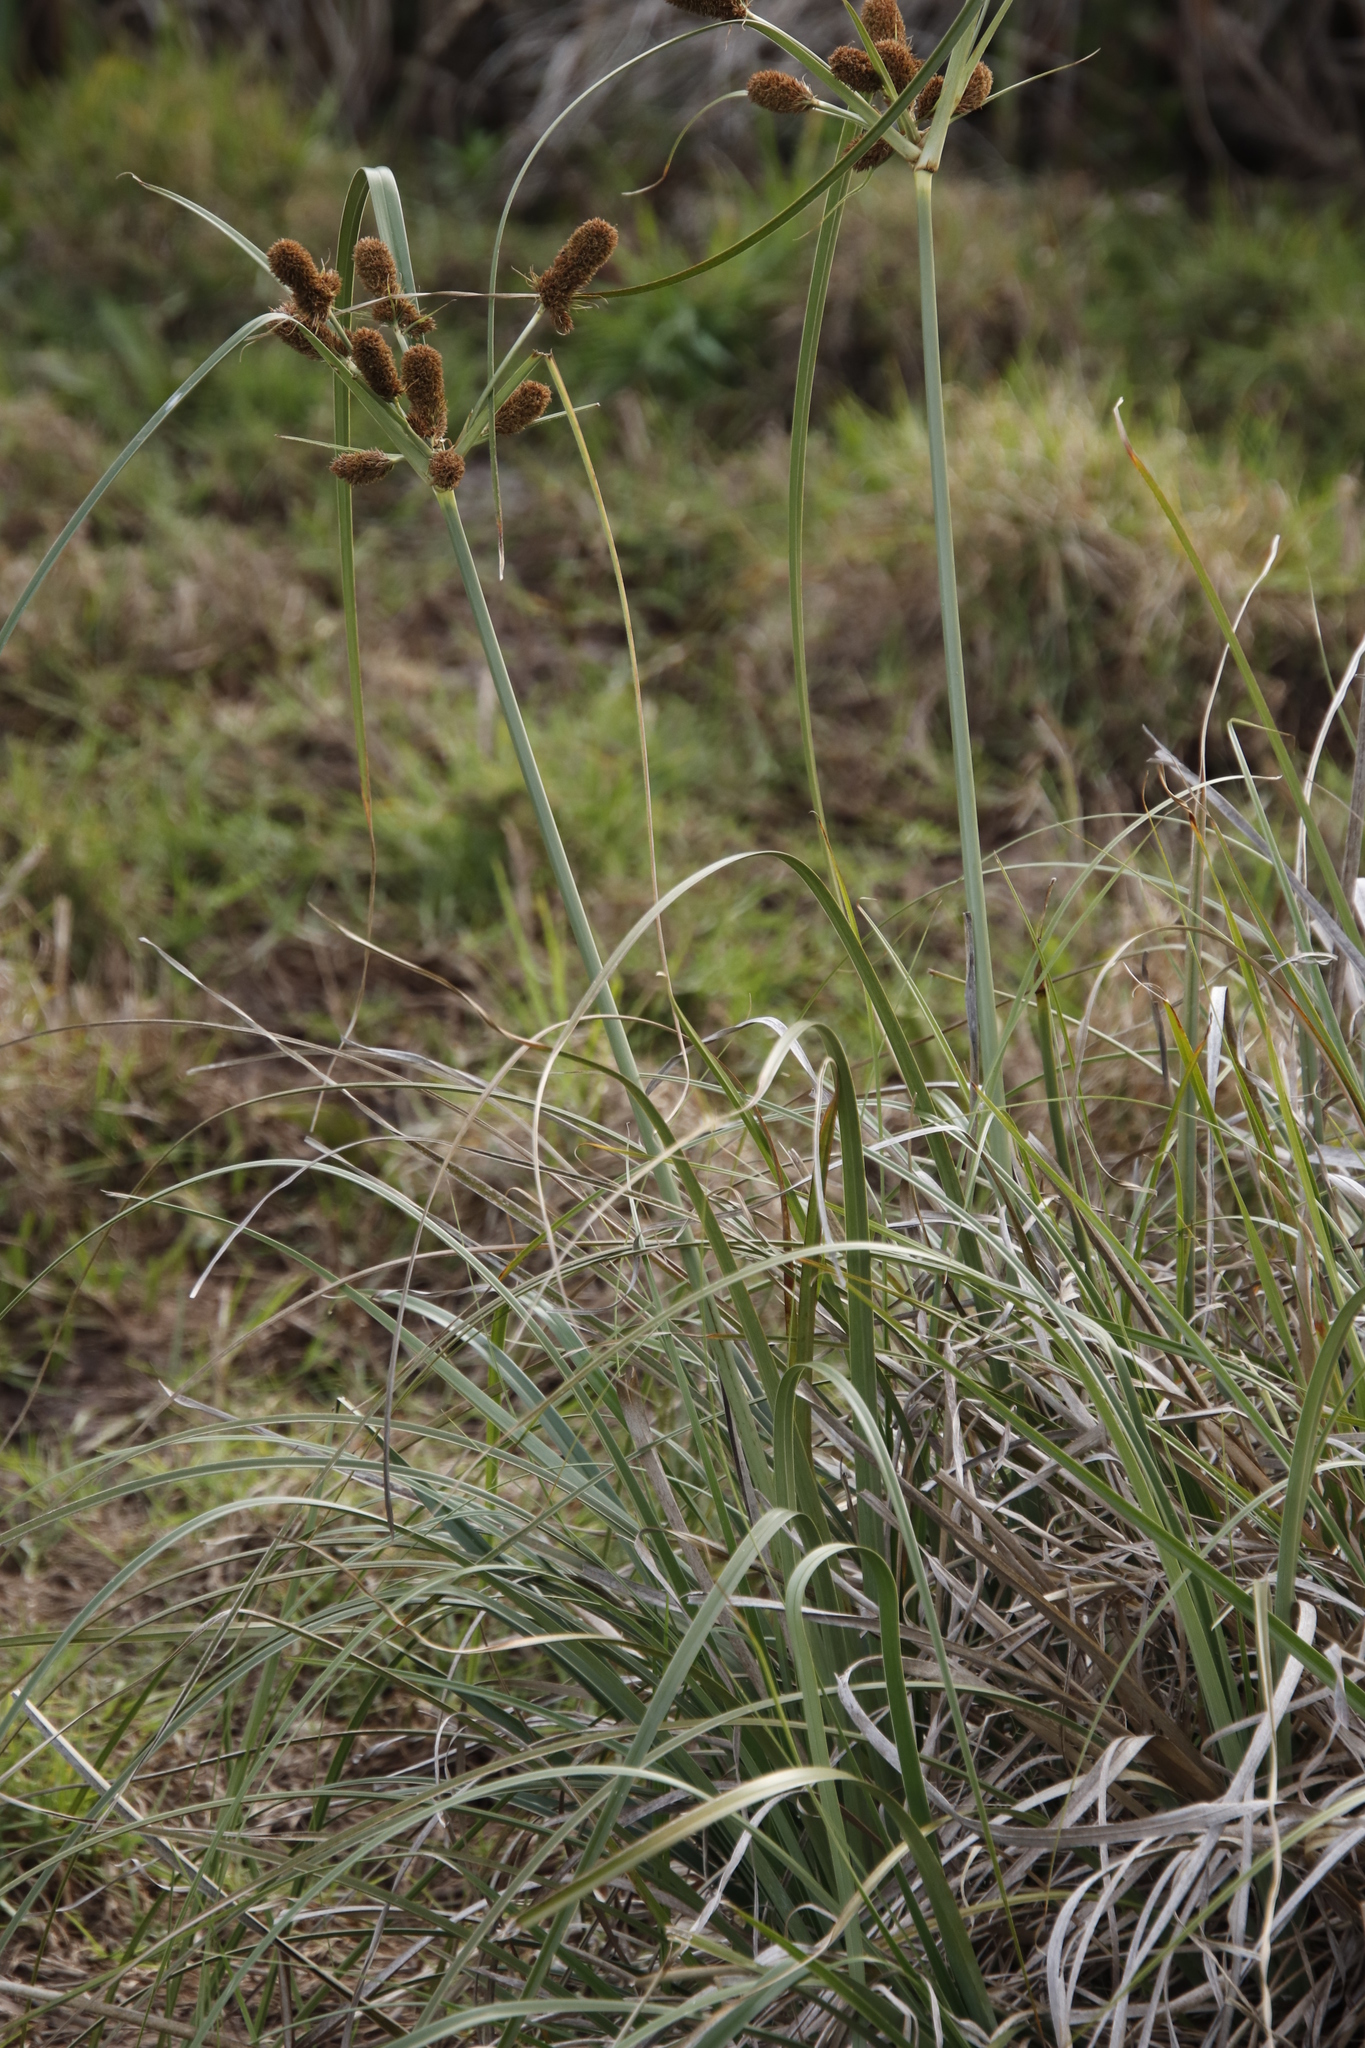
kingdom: Plantae
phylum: Tracheophyta
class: Liliopsida
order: Poales
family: Cyperaceae
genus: Cyperus
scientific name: Cyperus thunbergii
